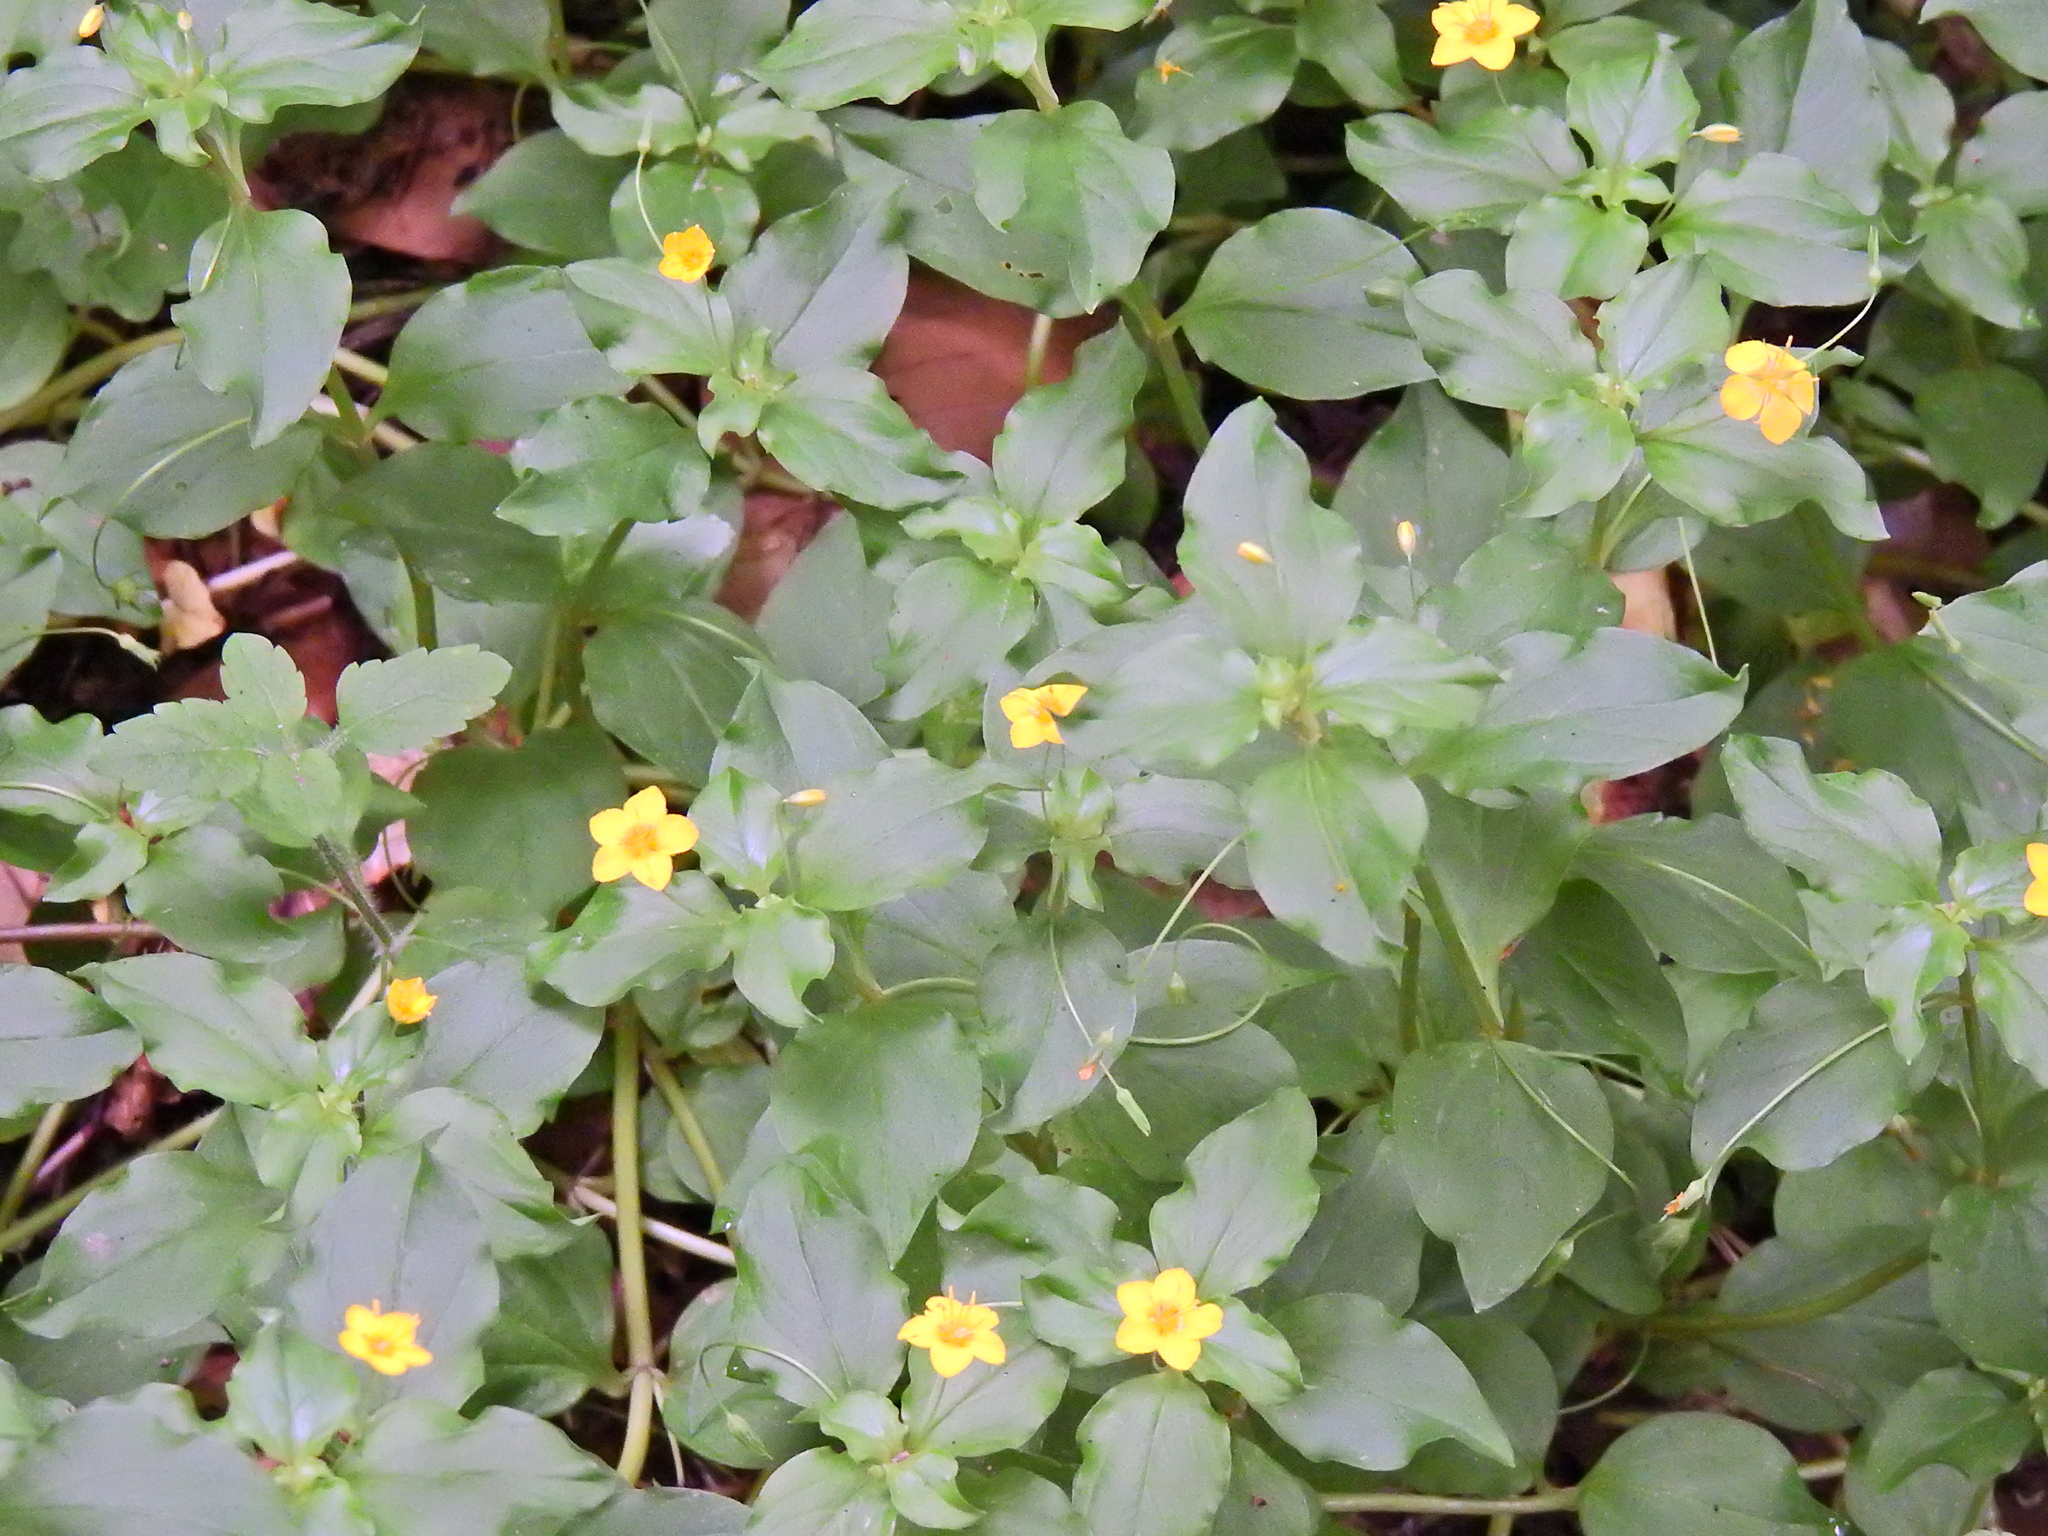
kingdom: Plantae
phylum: Tracheophyta
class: Magnoliopsida
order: Ericales
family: Primulaceae
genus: Lysimachia
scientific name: Lysimachia nemorum
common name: Yellow pimpernel
